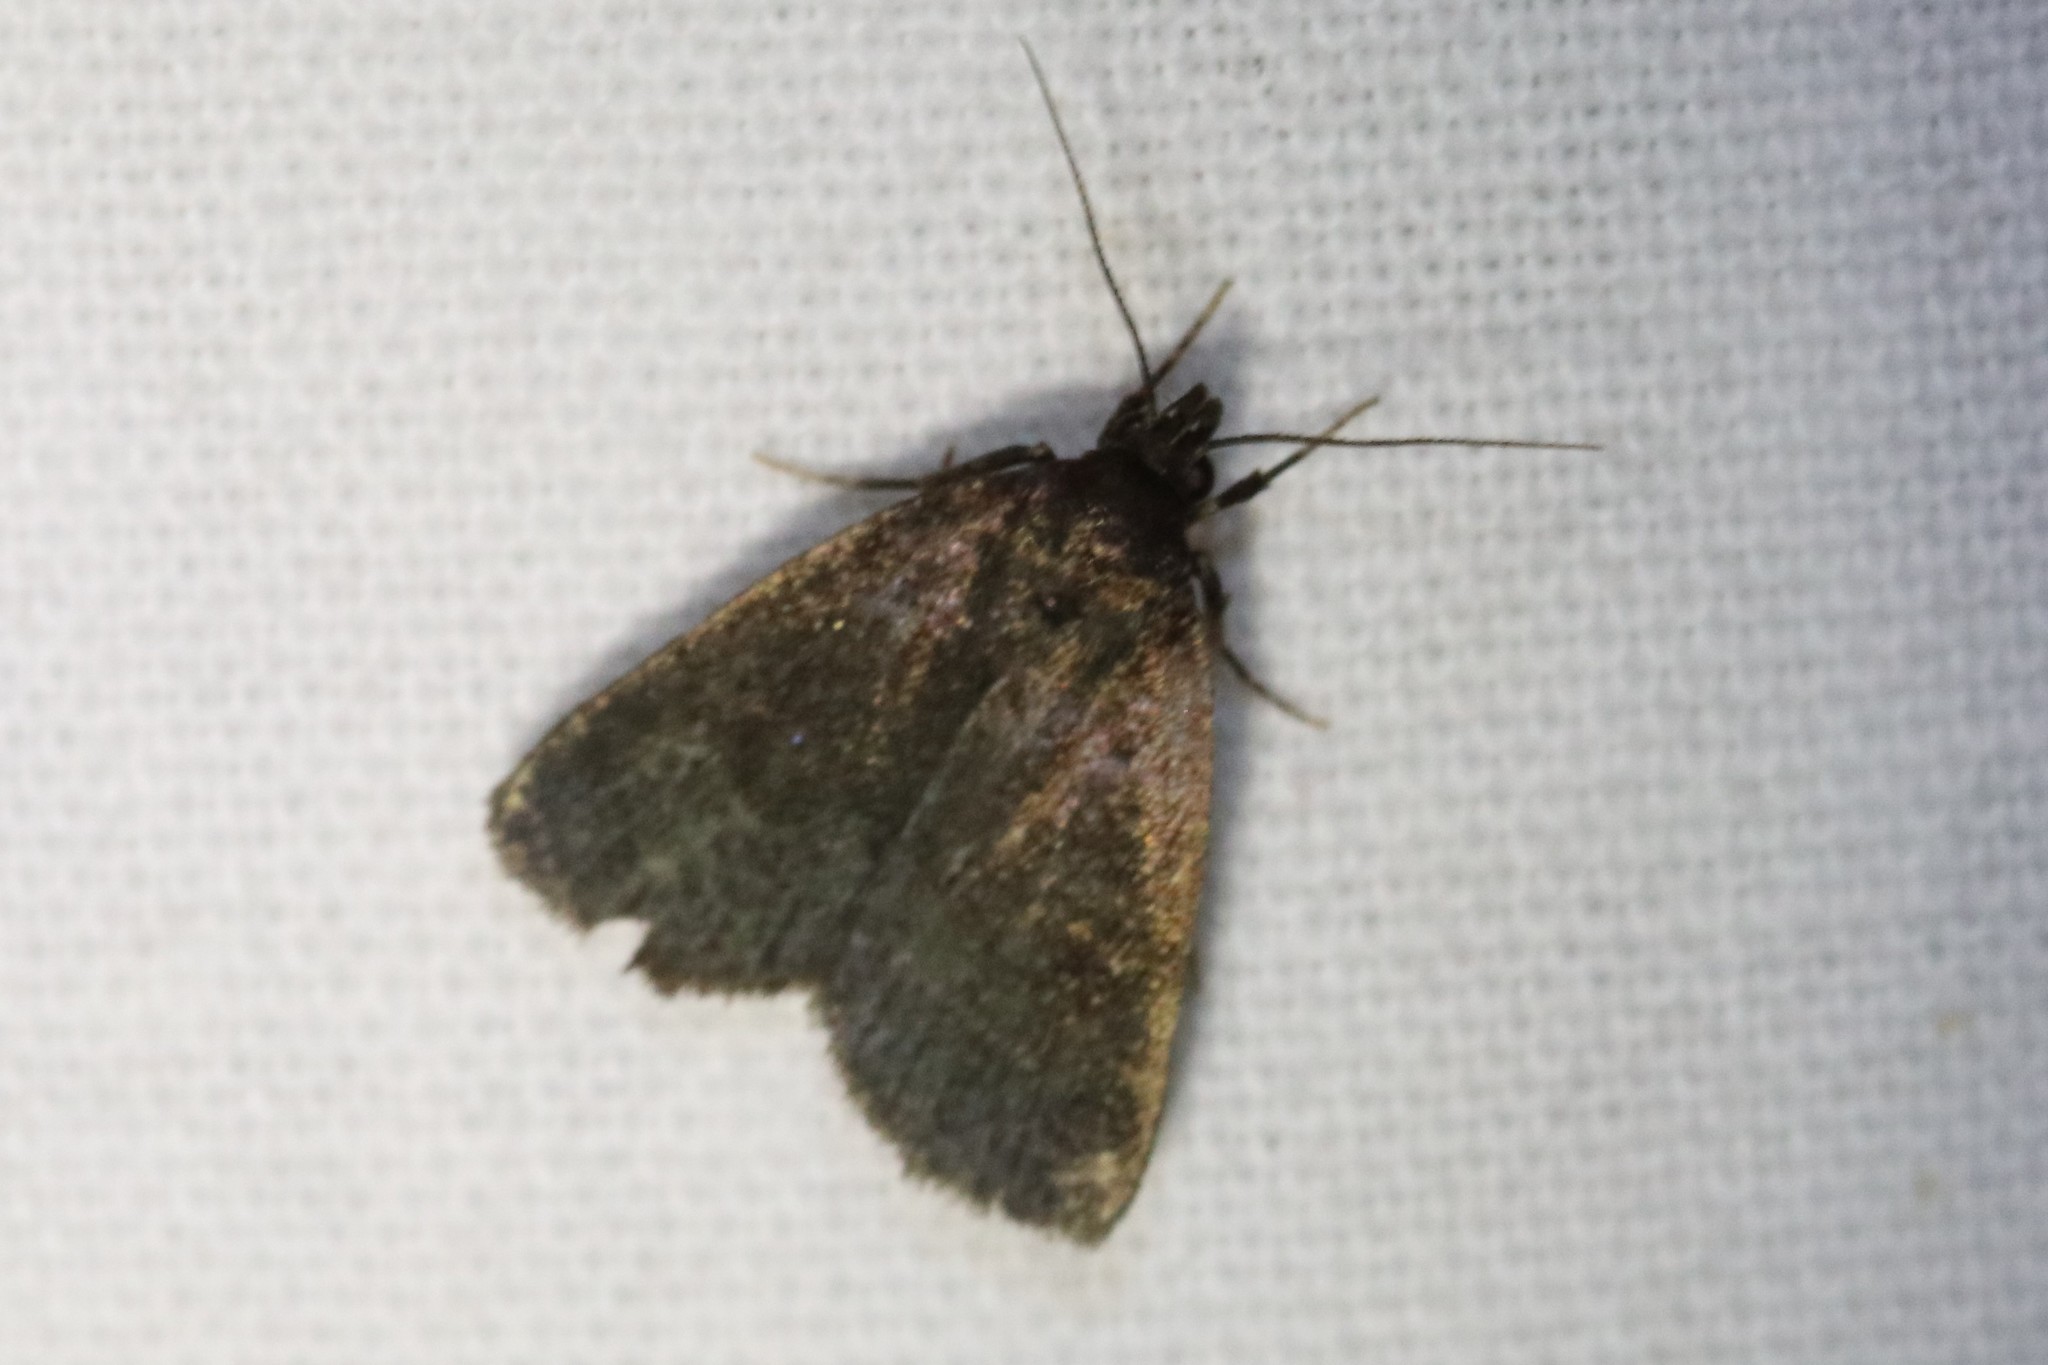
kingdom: Animalia
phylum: Arthropoda
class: Insecta
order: Lepidoptera
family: Erebidae
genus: Idia
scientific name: Idia rotundalis
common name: Rotund idia moth
